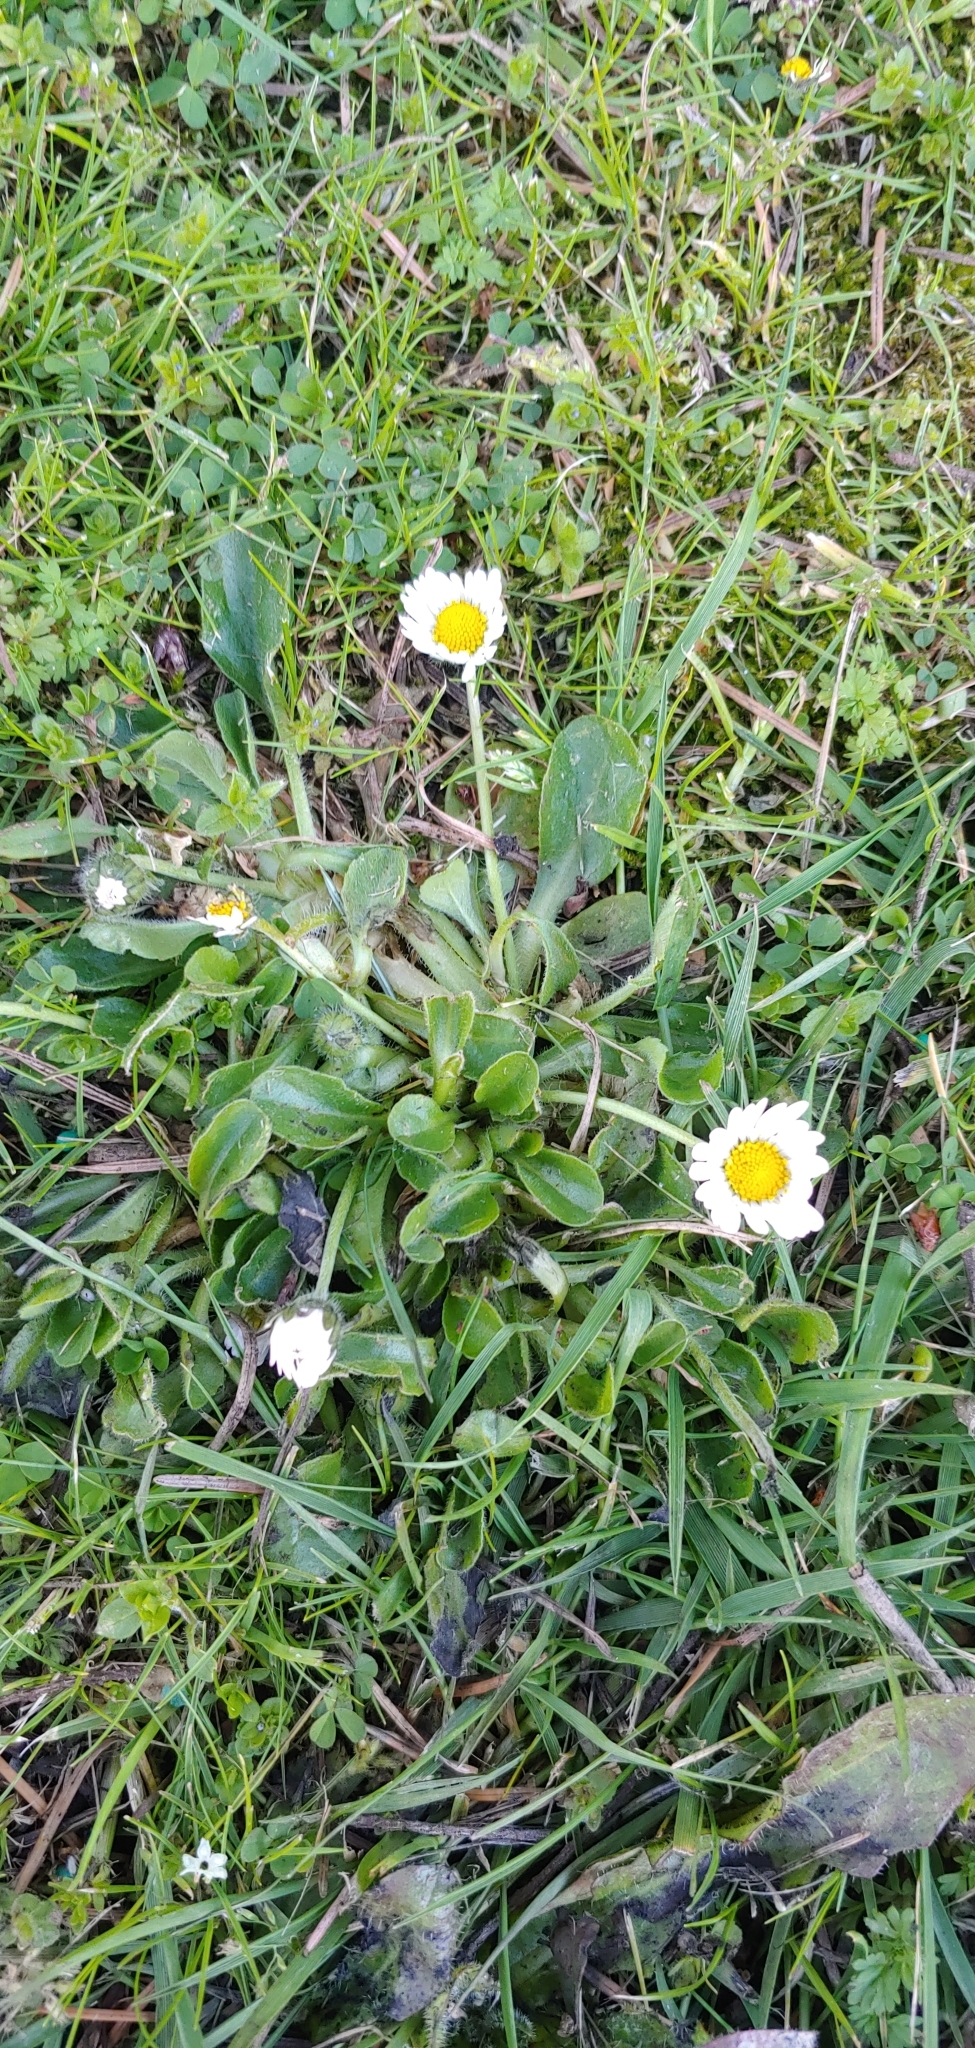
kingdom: Plantae
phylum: Tracheophyta
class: Magnoliopsida
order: Asterales
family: Asteraceae
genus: Bellis
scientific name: Bellis perennis
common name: Lawndaisy
